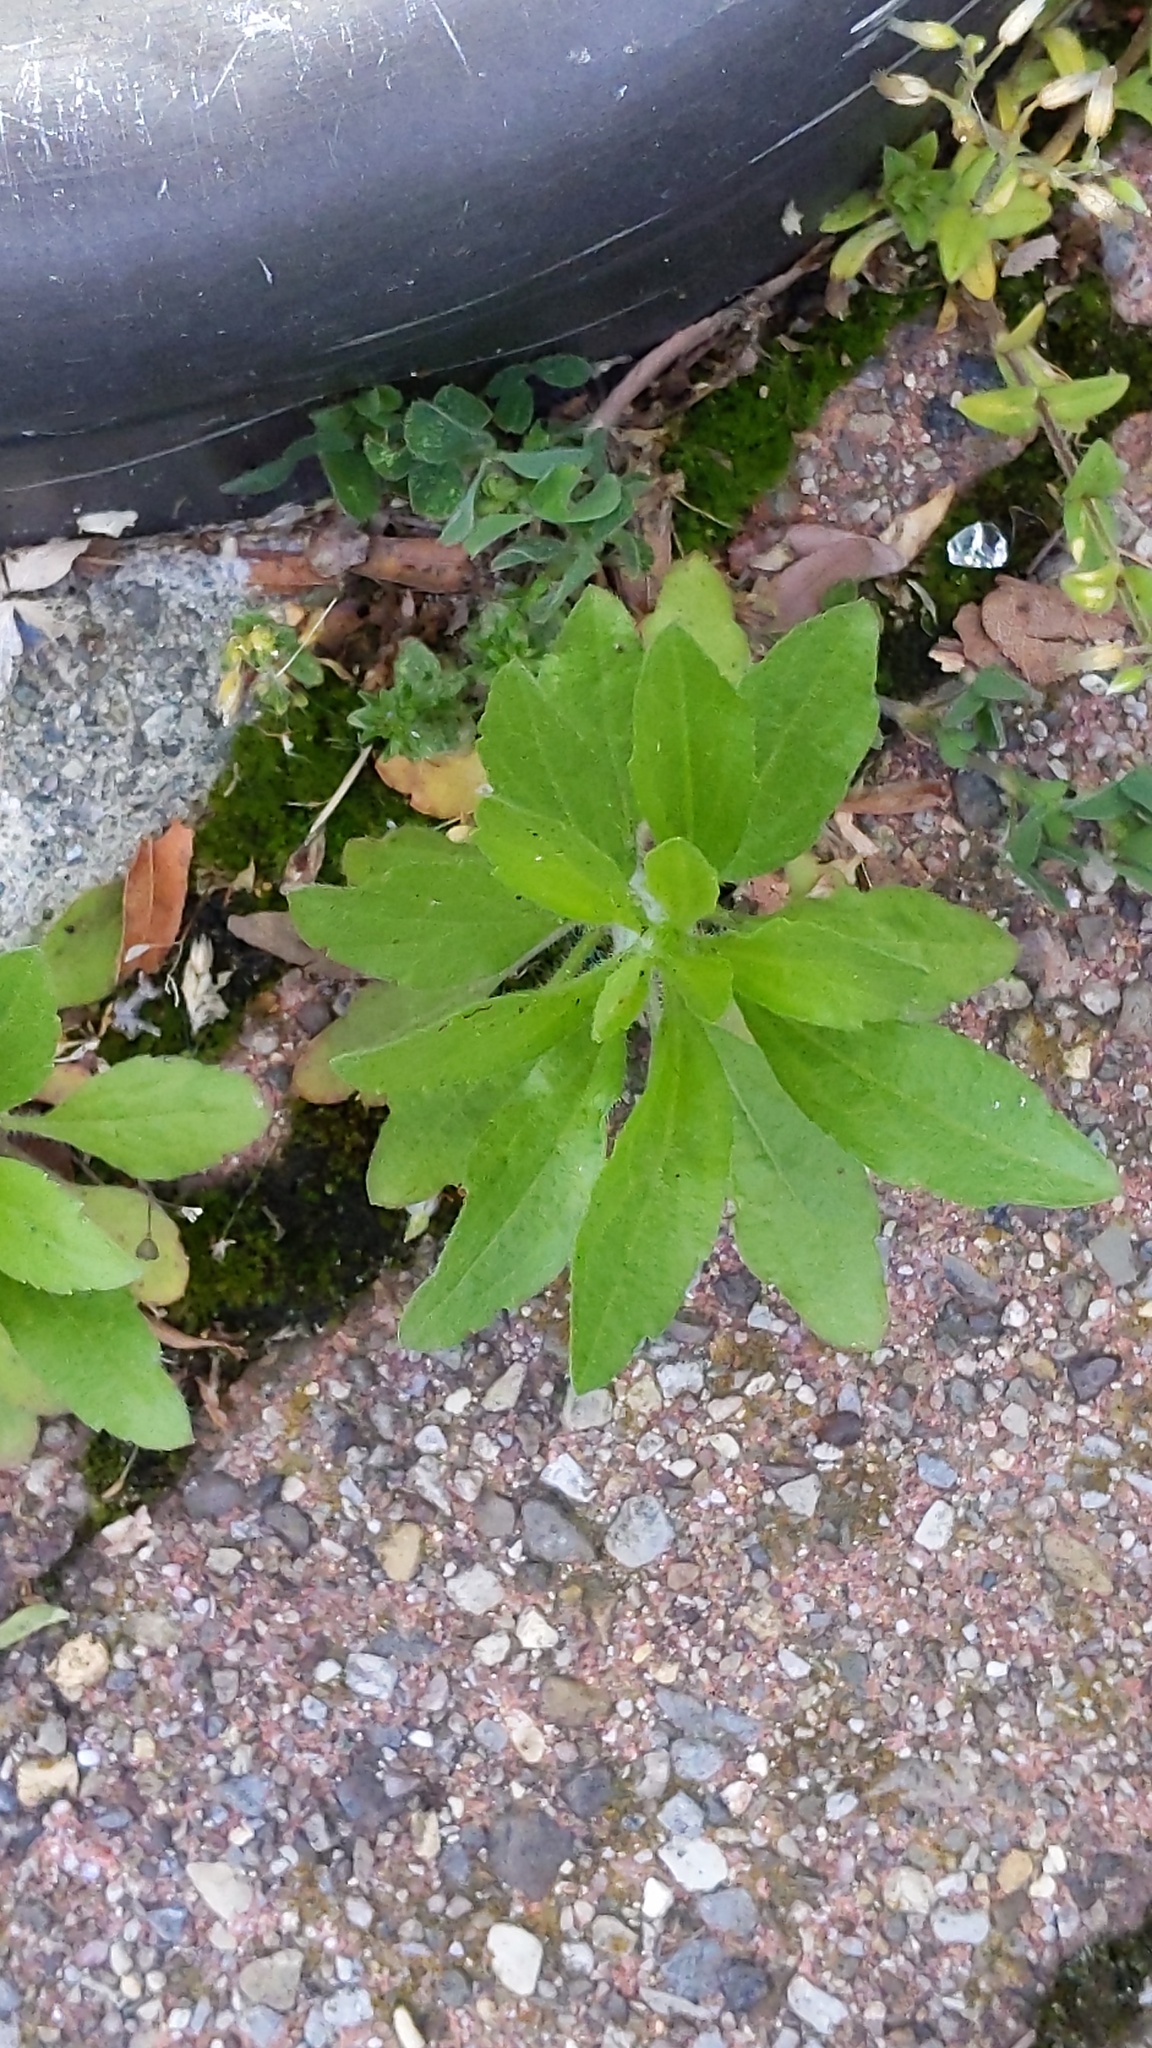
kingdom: Plantae
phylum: Tracheophyta
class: Magnoliopsida
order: Asterales
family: Asteraceae
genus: Erigeron
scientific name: Erigeron canadensis
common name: Canadian fleabane
